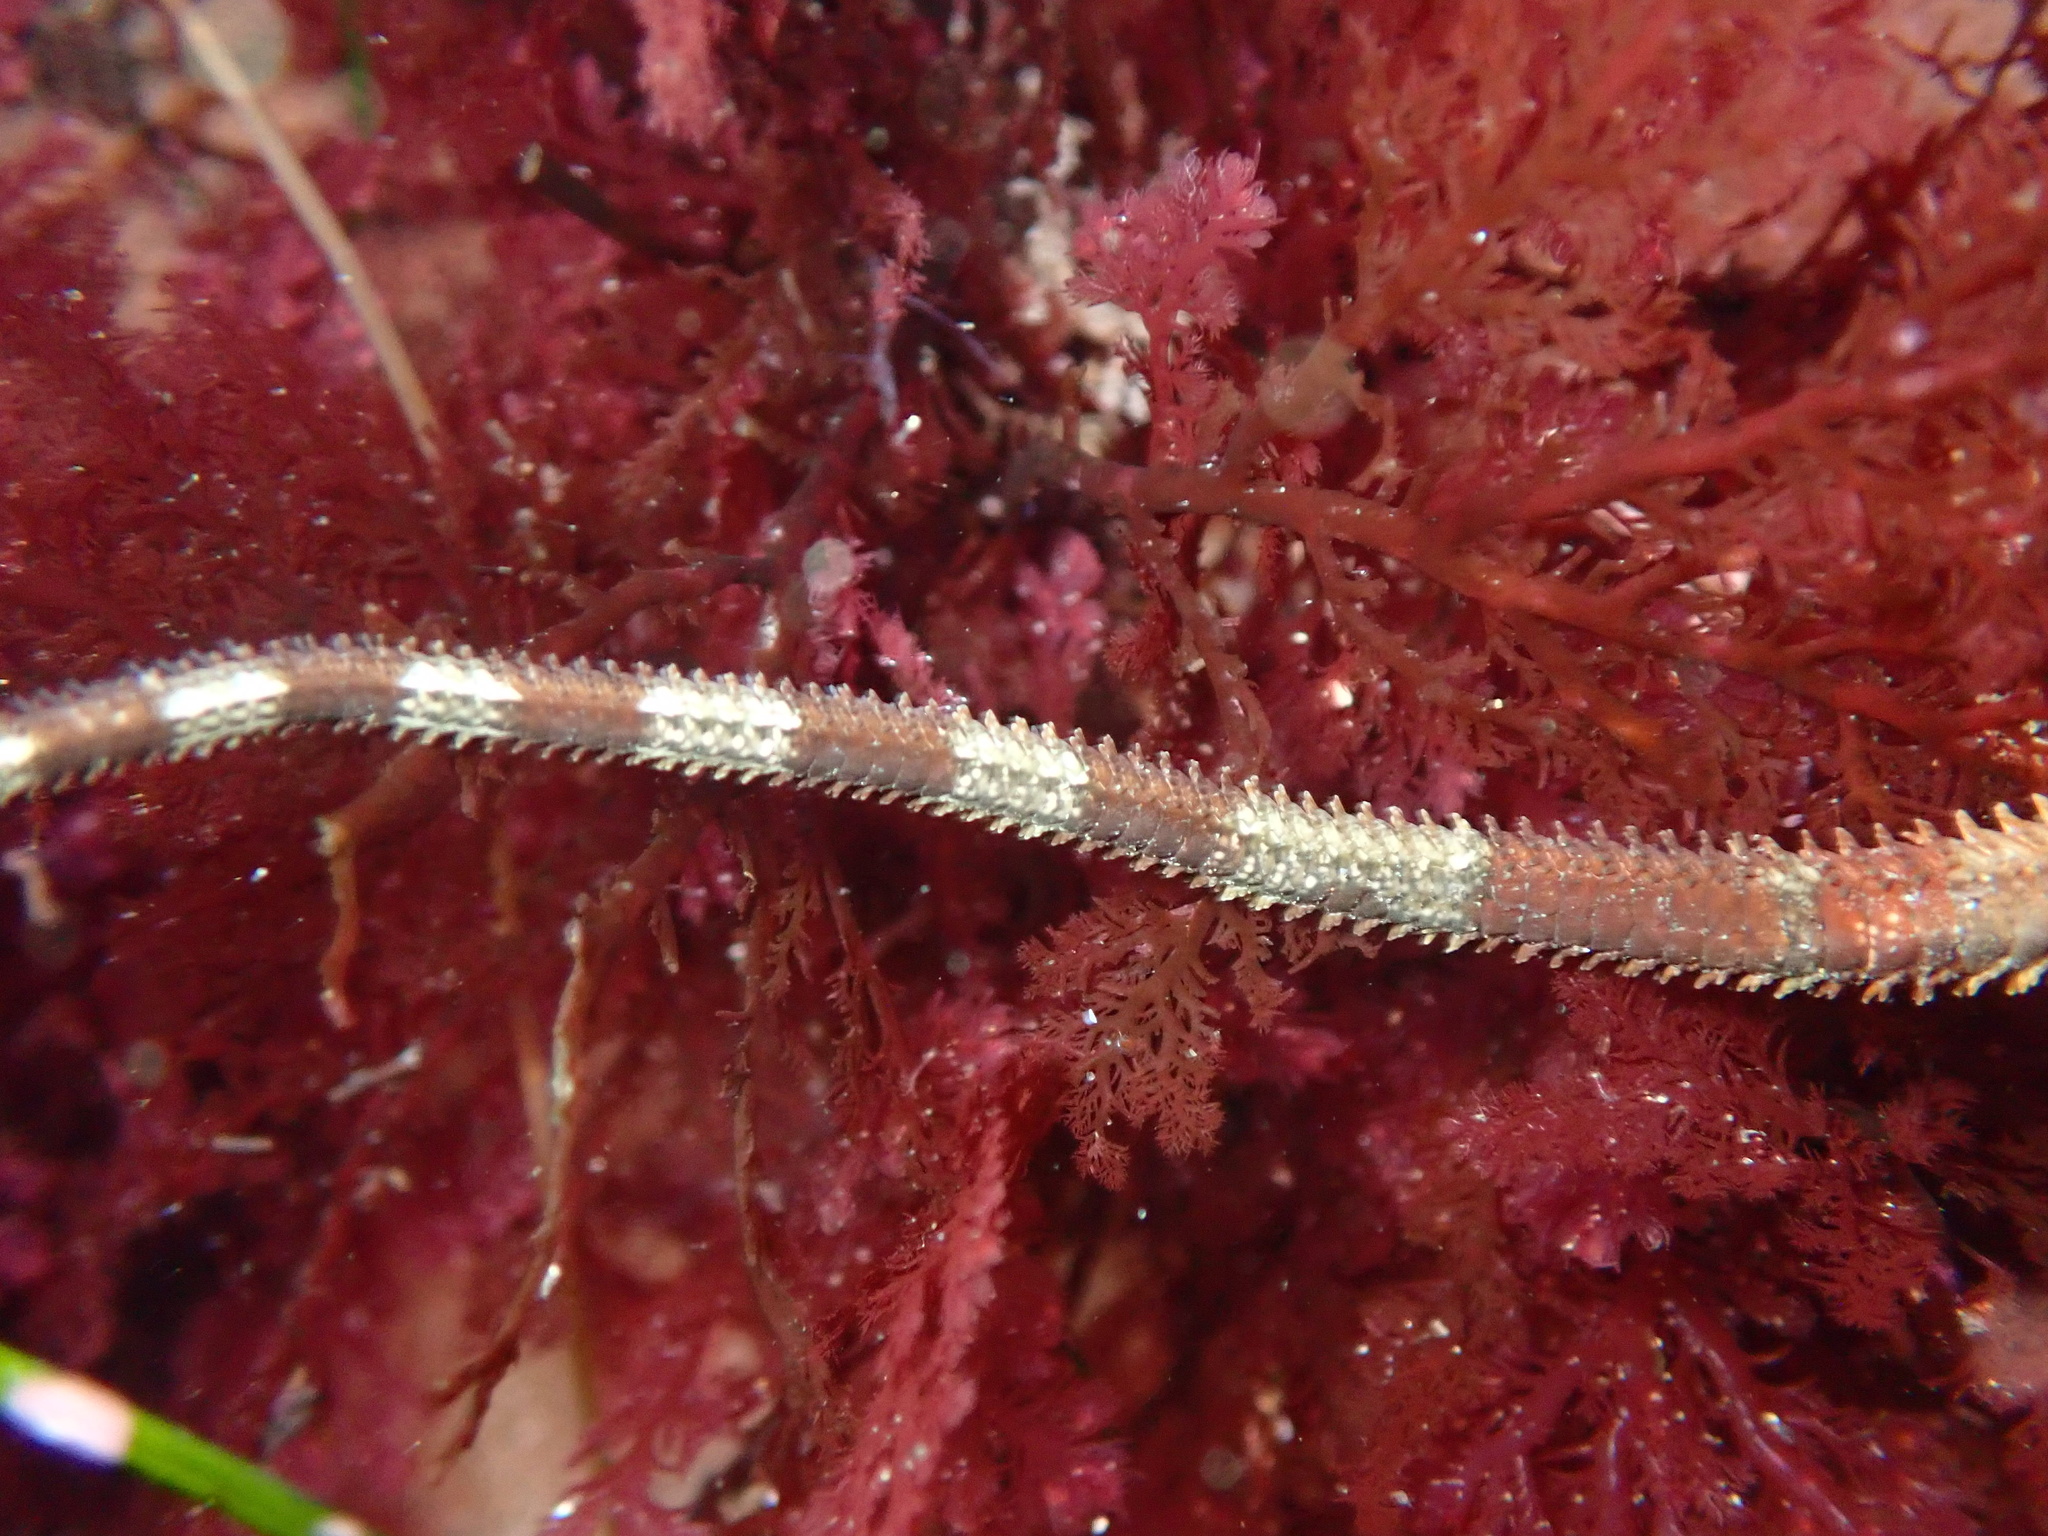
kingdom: Animalia
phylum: Echinodermata
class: Ophiuroidea
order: Ophiacanthida
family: Ophiodermatidae
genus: Ophioderma
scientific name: Ophioderma panamense
